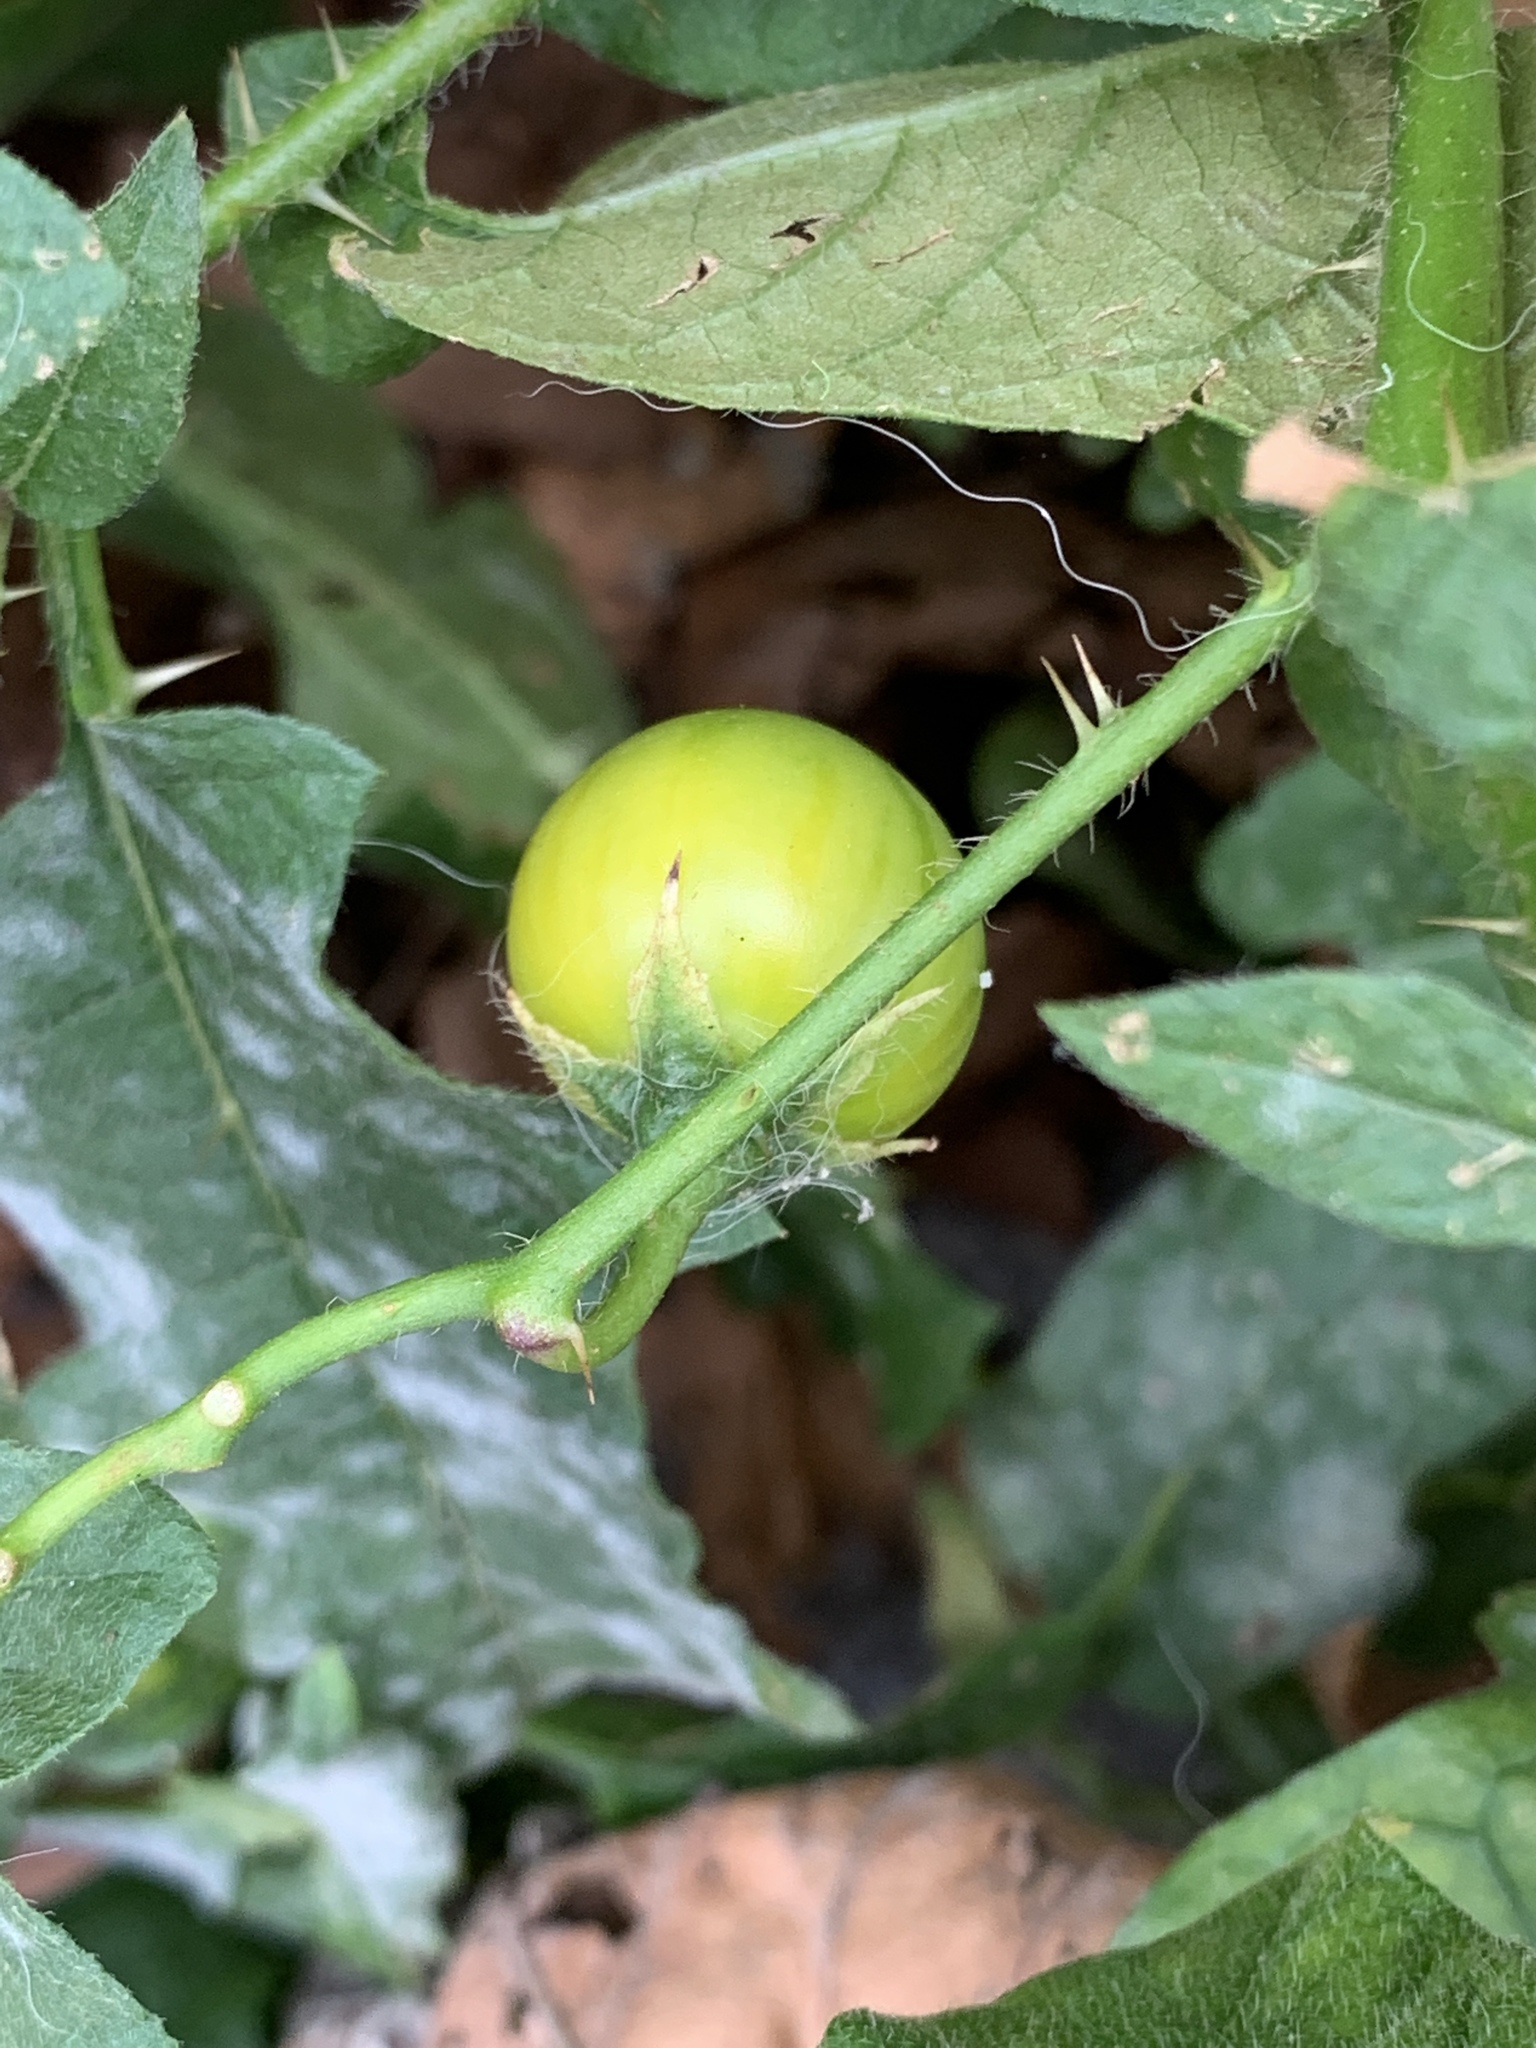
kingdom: Plantae
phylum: Tracheophyta
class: Magnoliopsida
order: Solanales
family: Solanaceae
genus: Solanum
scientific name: Solanum carolinense
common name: Horse-nettle
